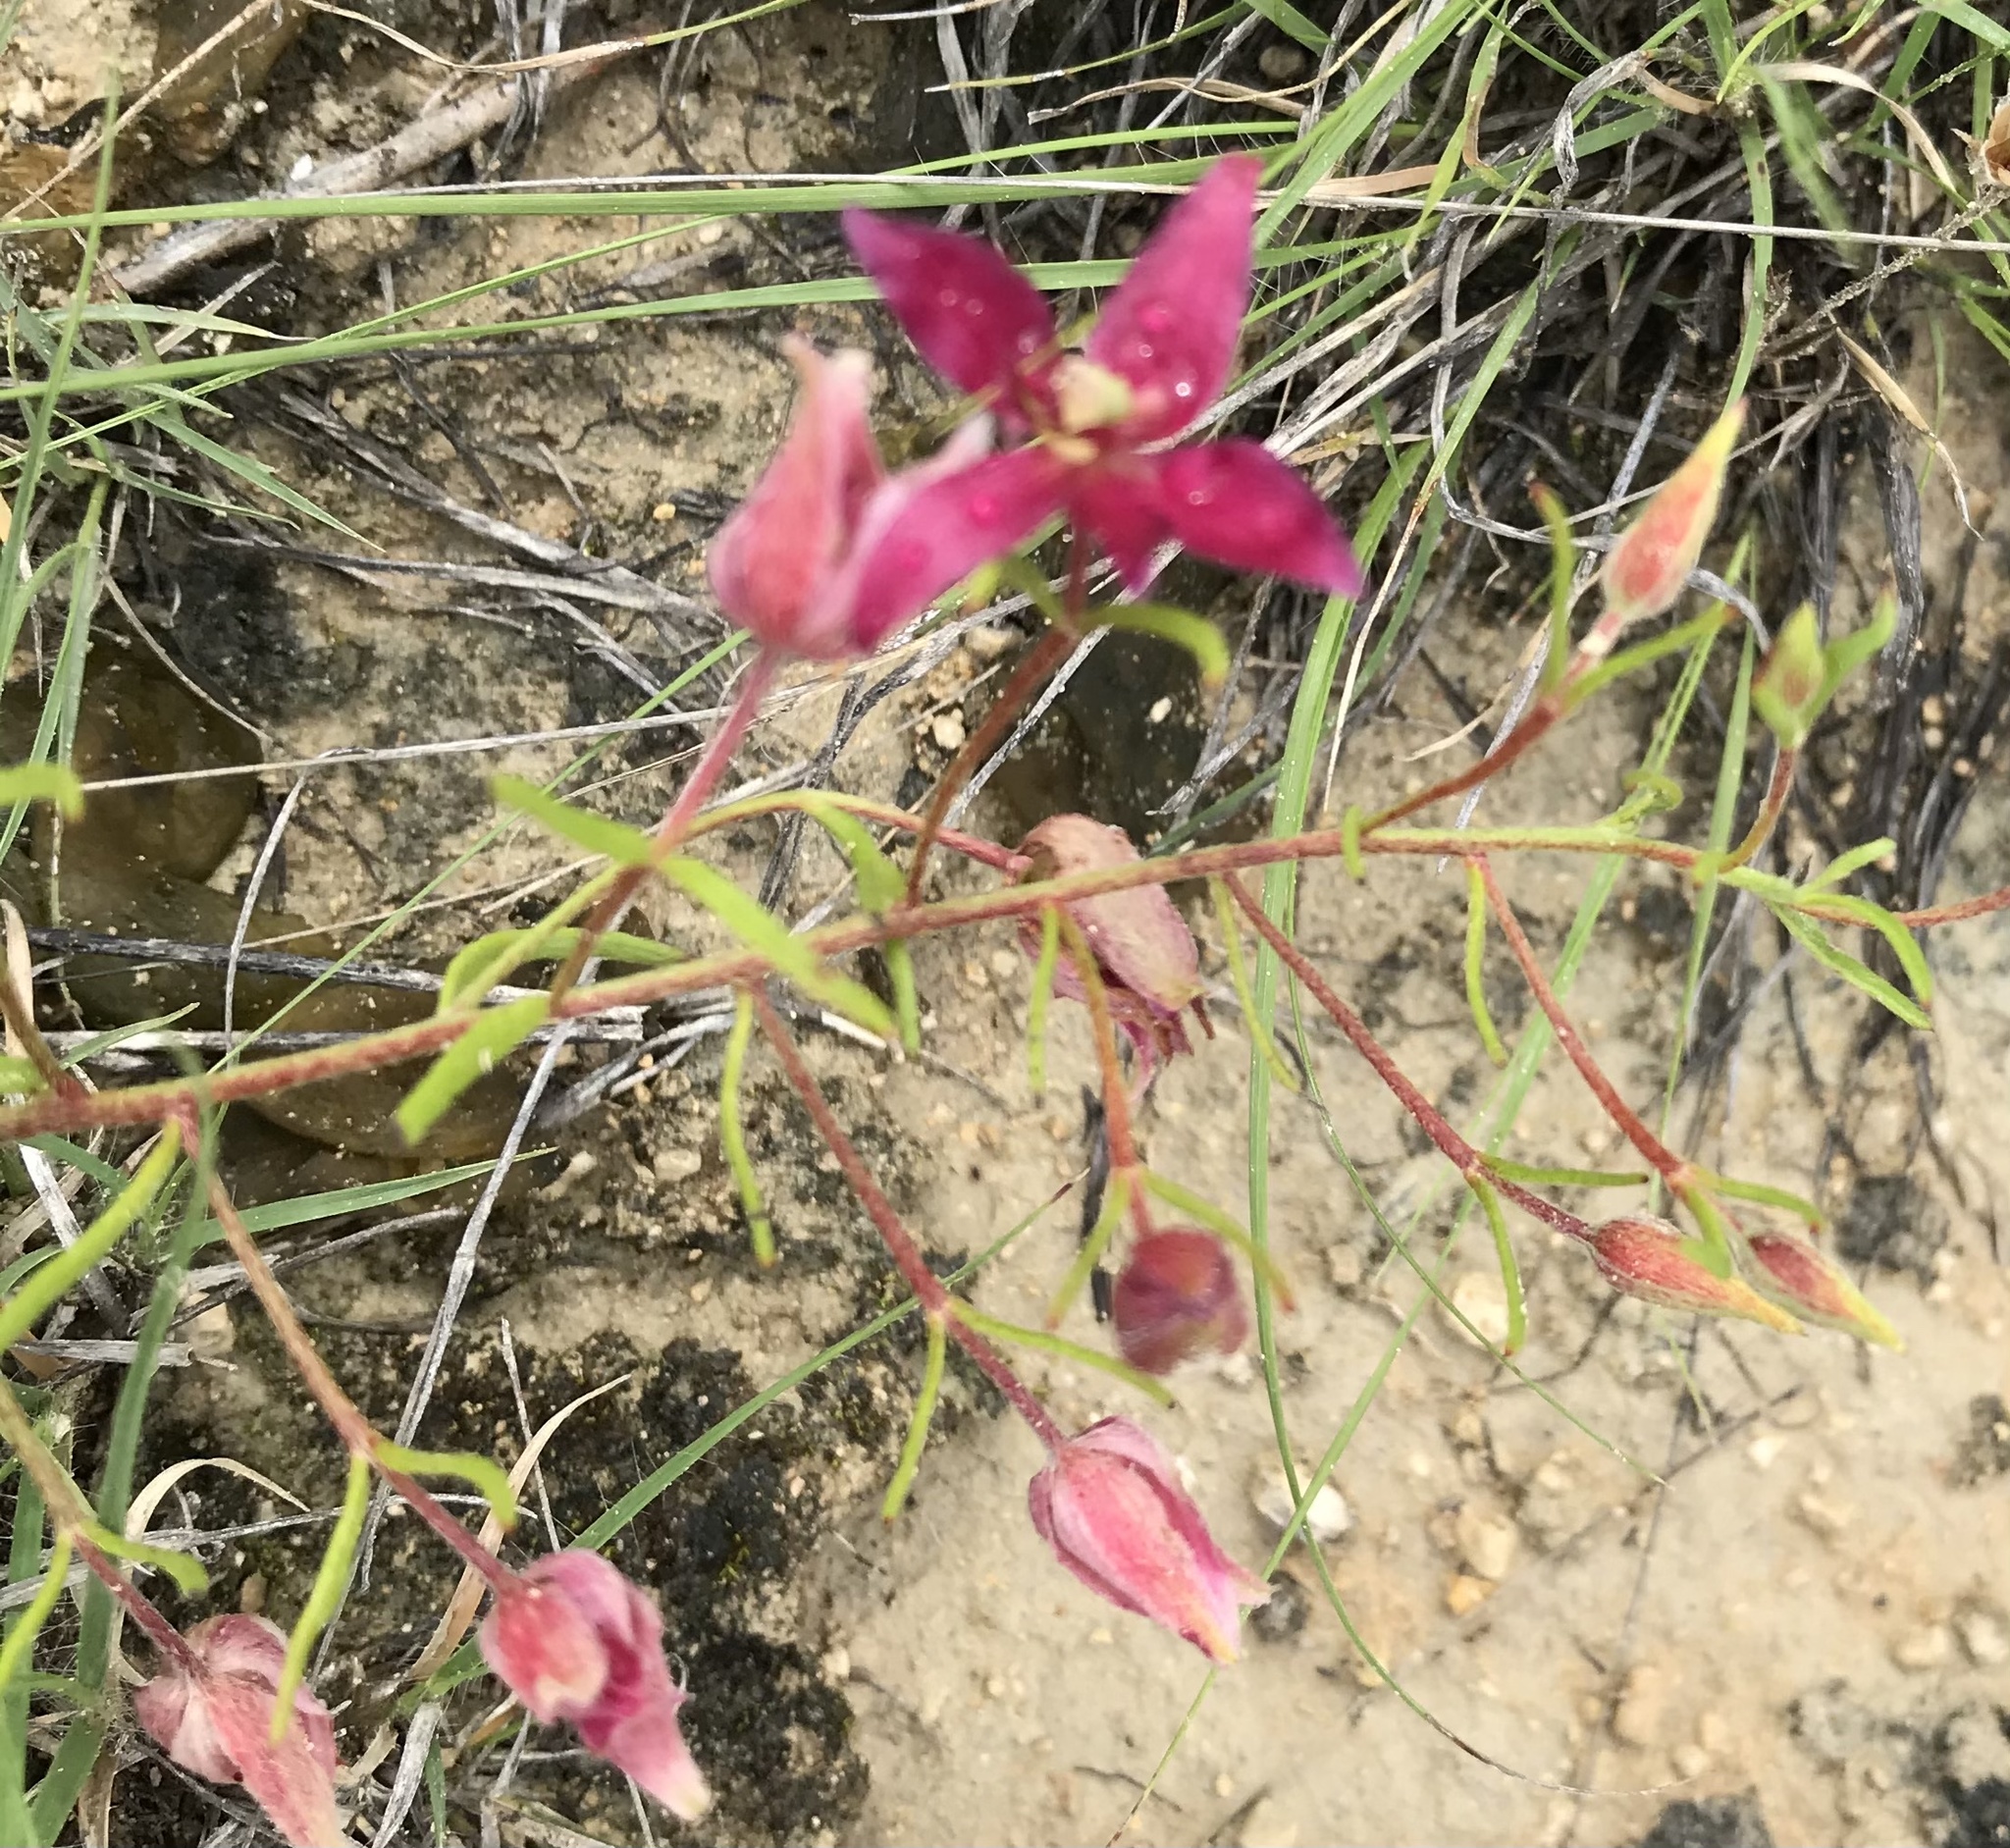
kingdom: Plantae
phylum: Tracheophyta
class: Magnoliopsida
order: Zygophyllales
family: Krameriaceae
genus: Krameria
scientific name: Krameria lanceolata
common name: Ratany
